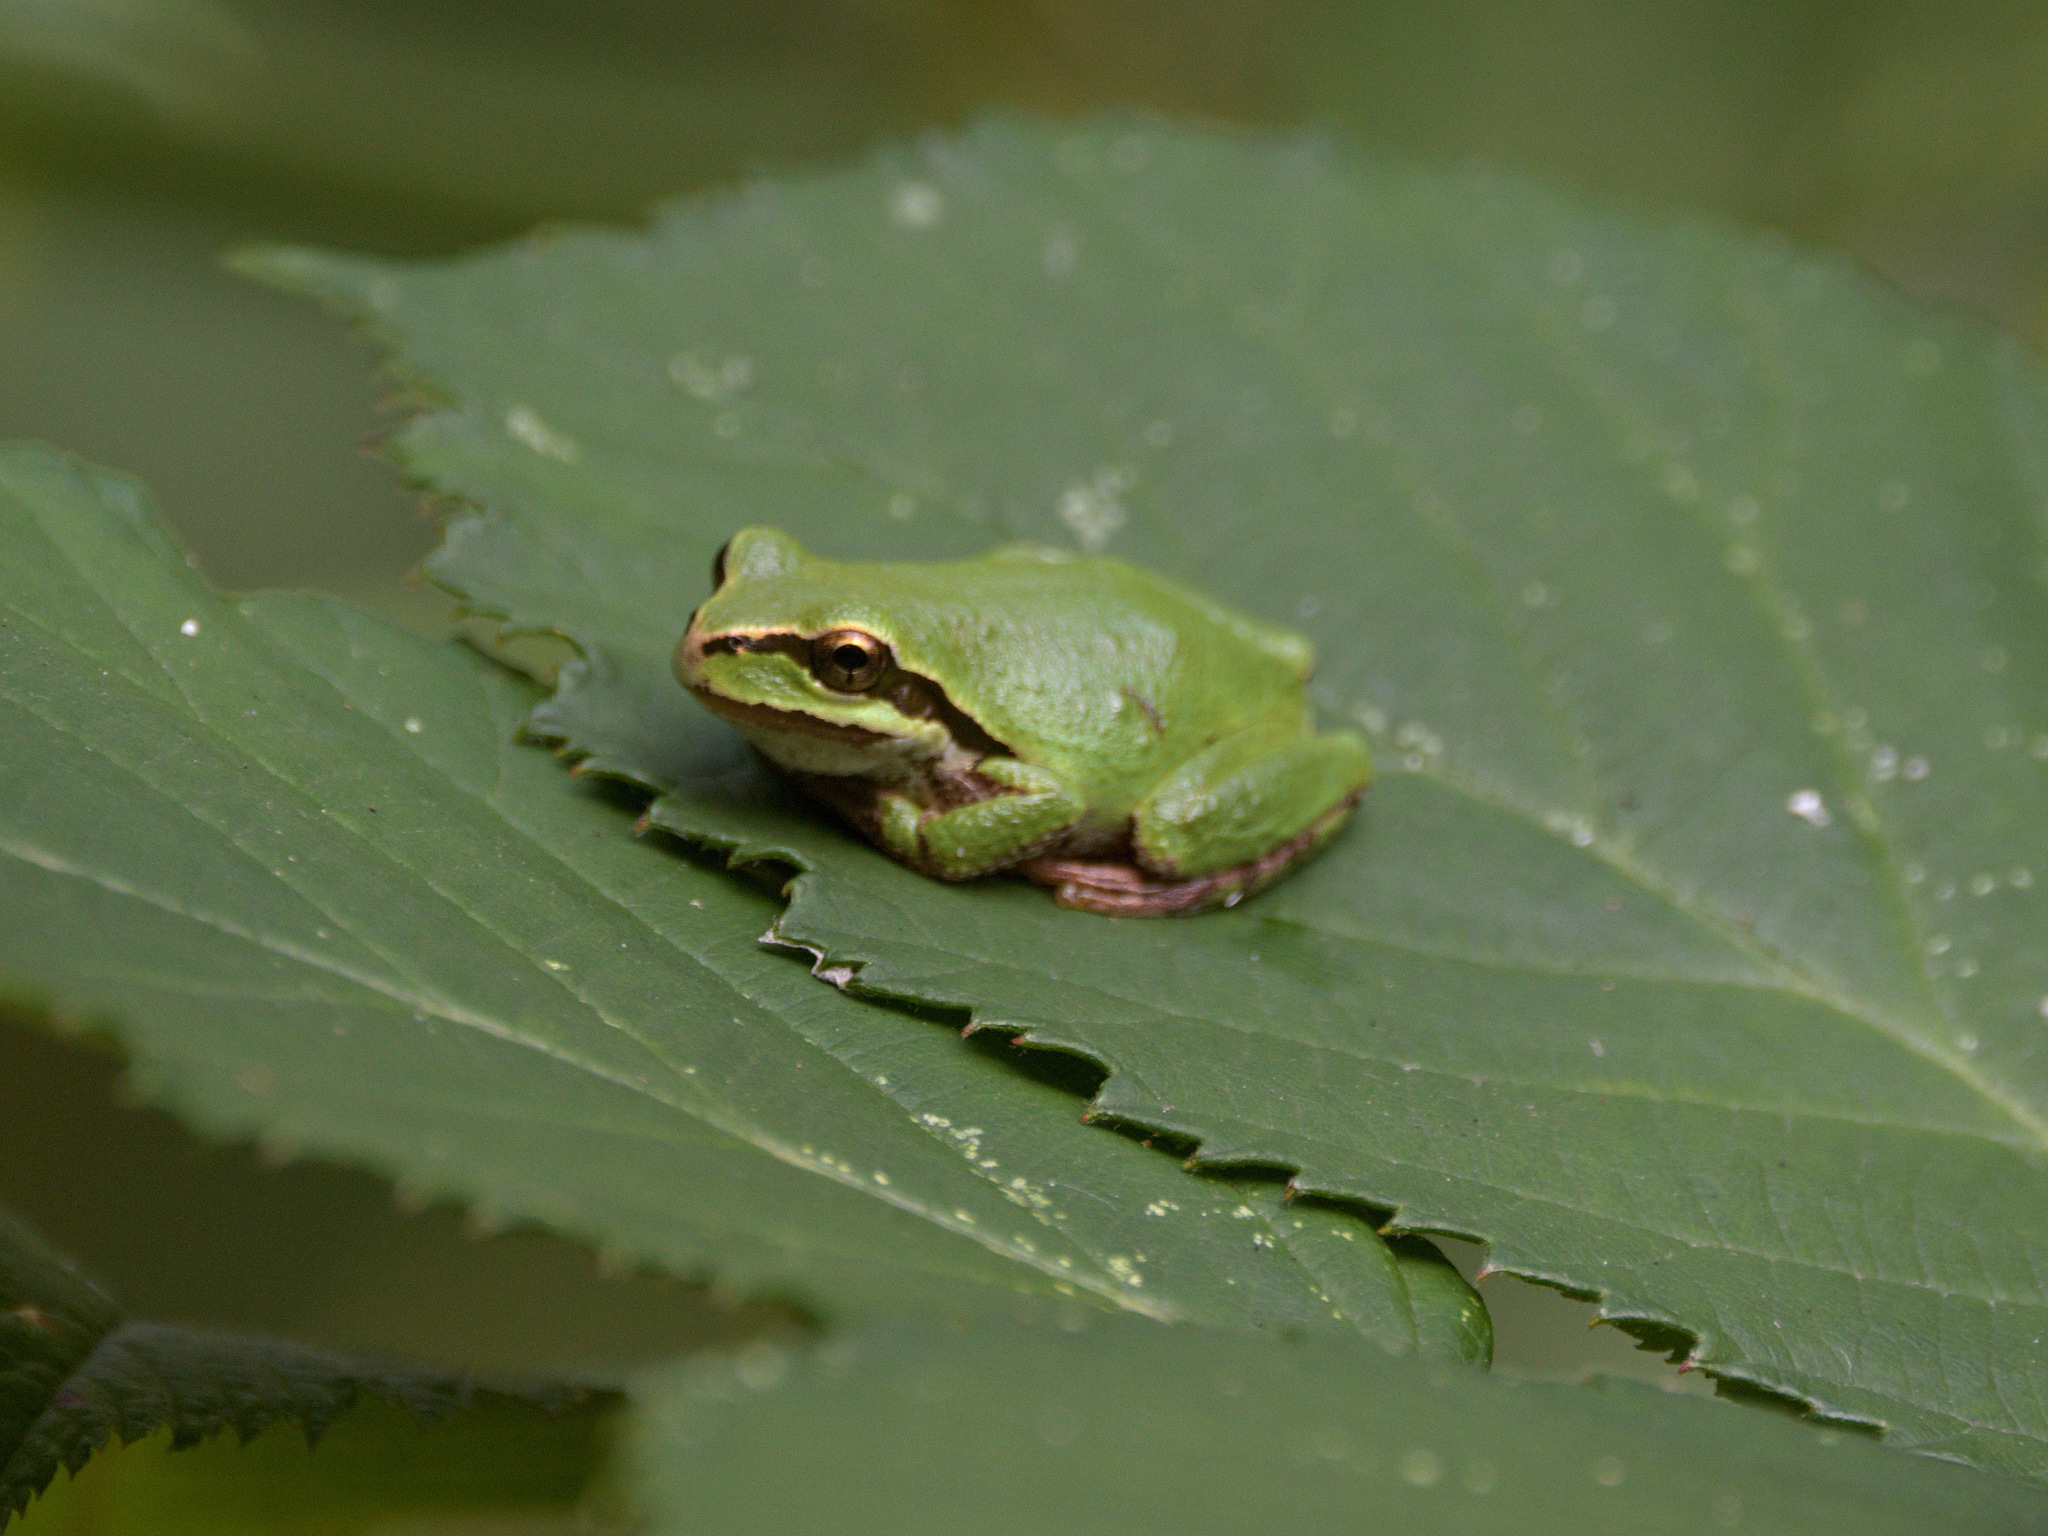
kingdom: Animalia
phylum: Chordata
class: Amphibia
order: Anura
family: Hylidae
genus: Pseudacris
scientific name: Pseudacris regilla
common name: Pacific chorus frog
